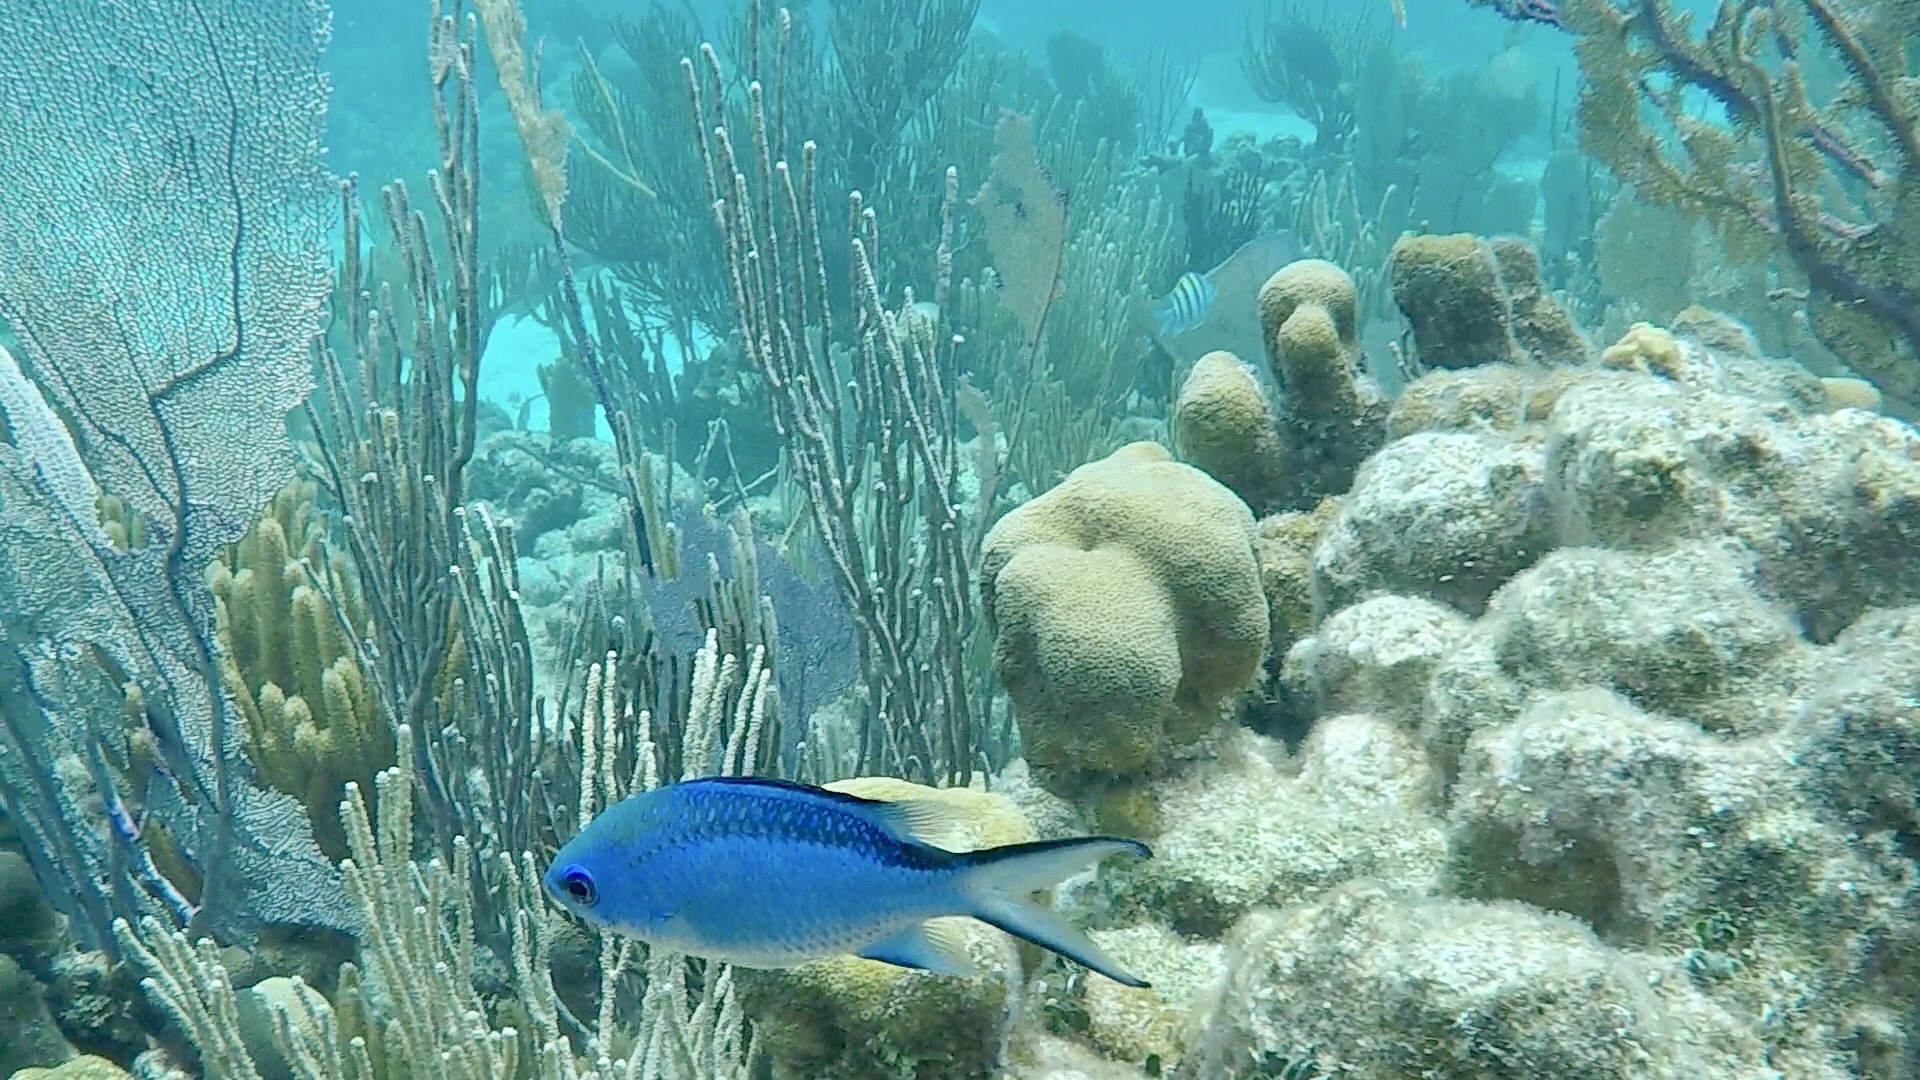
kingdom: Animalia
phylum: Chordata
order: Perciformes
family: Pomacentridae
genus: Chromis
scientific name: Chromis cyanea
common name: Blue chromis
